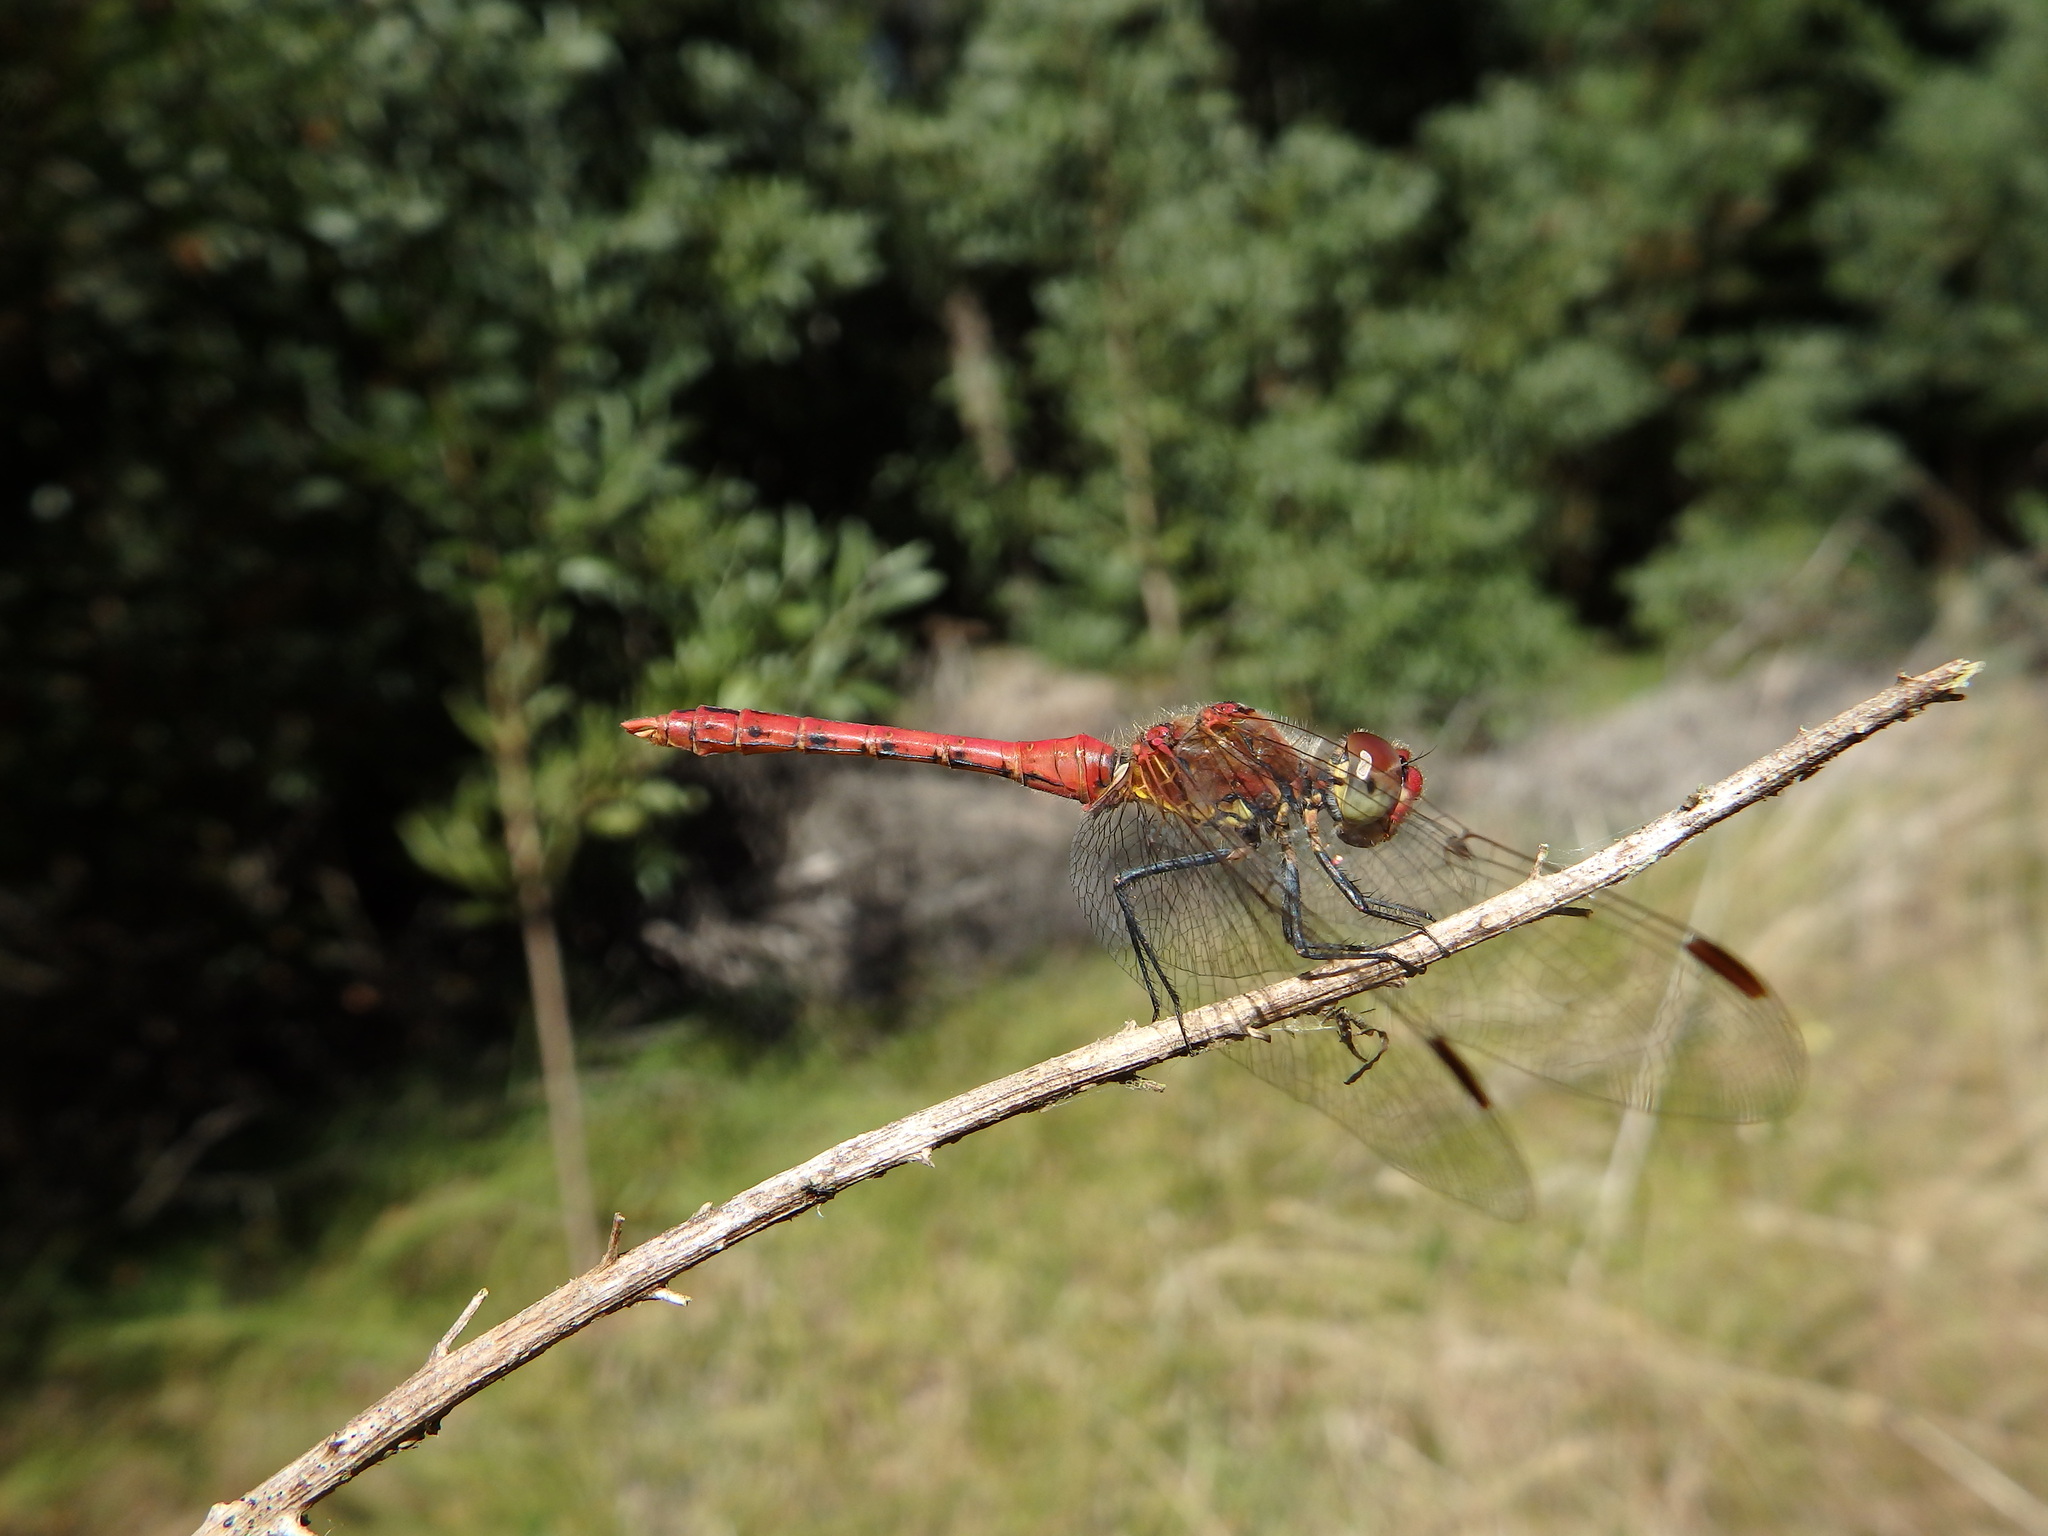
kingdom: Animalia
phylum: Arthropoda
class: Insecta
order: Odonata
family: Libellulidae
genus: Sympetrum
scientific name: Sympetrum sanguineum
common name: Ruddy darter
